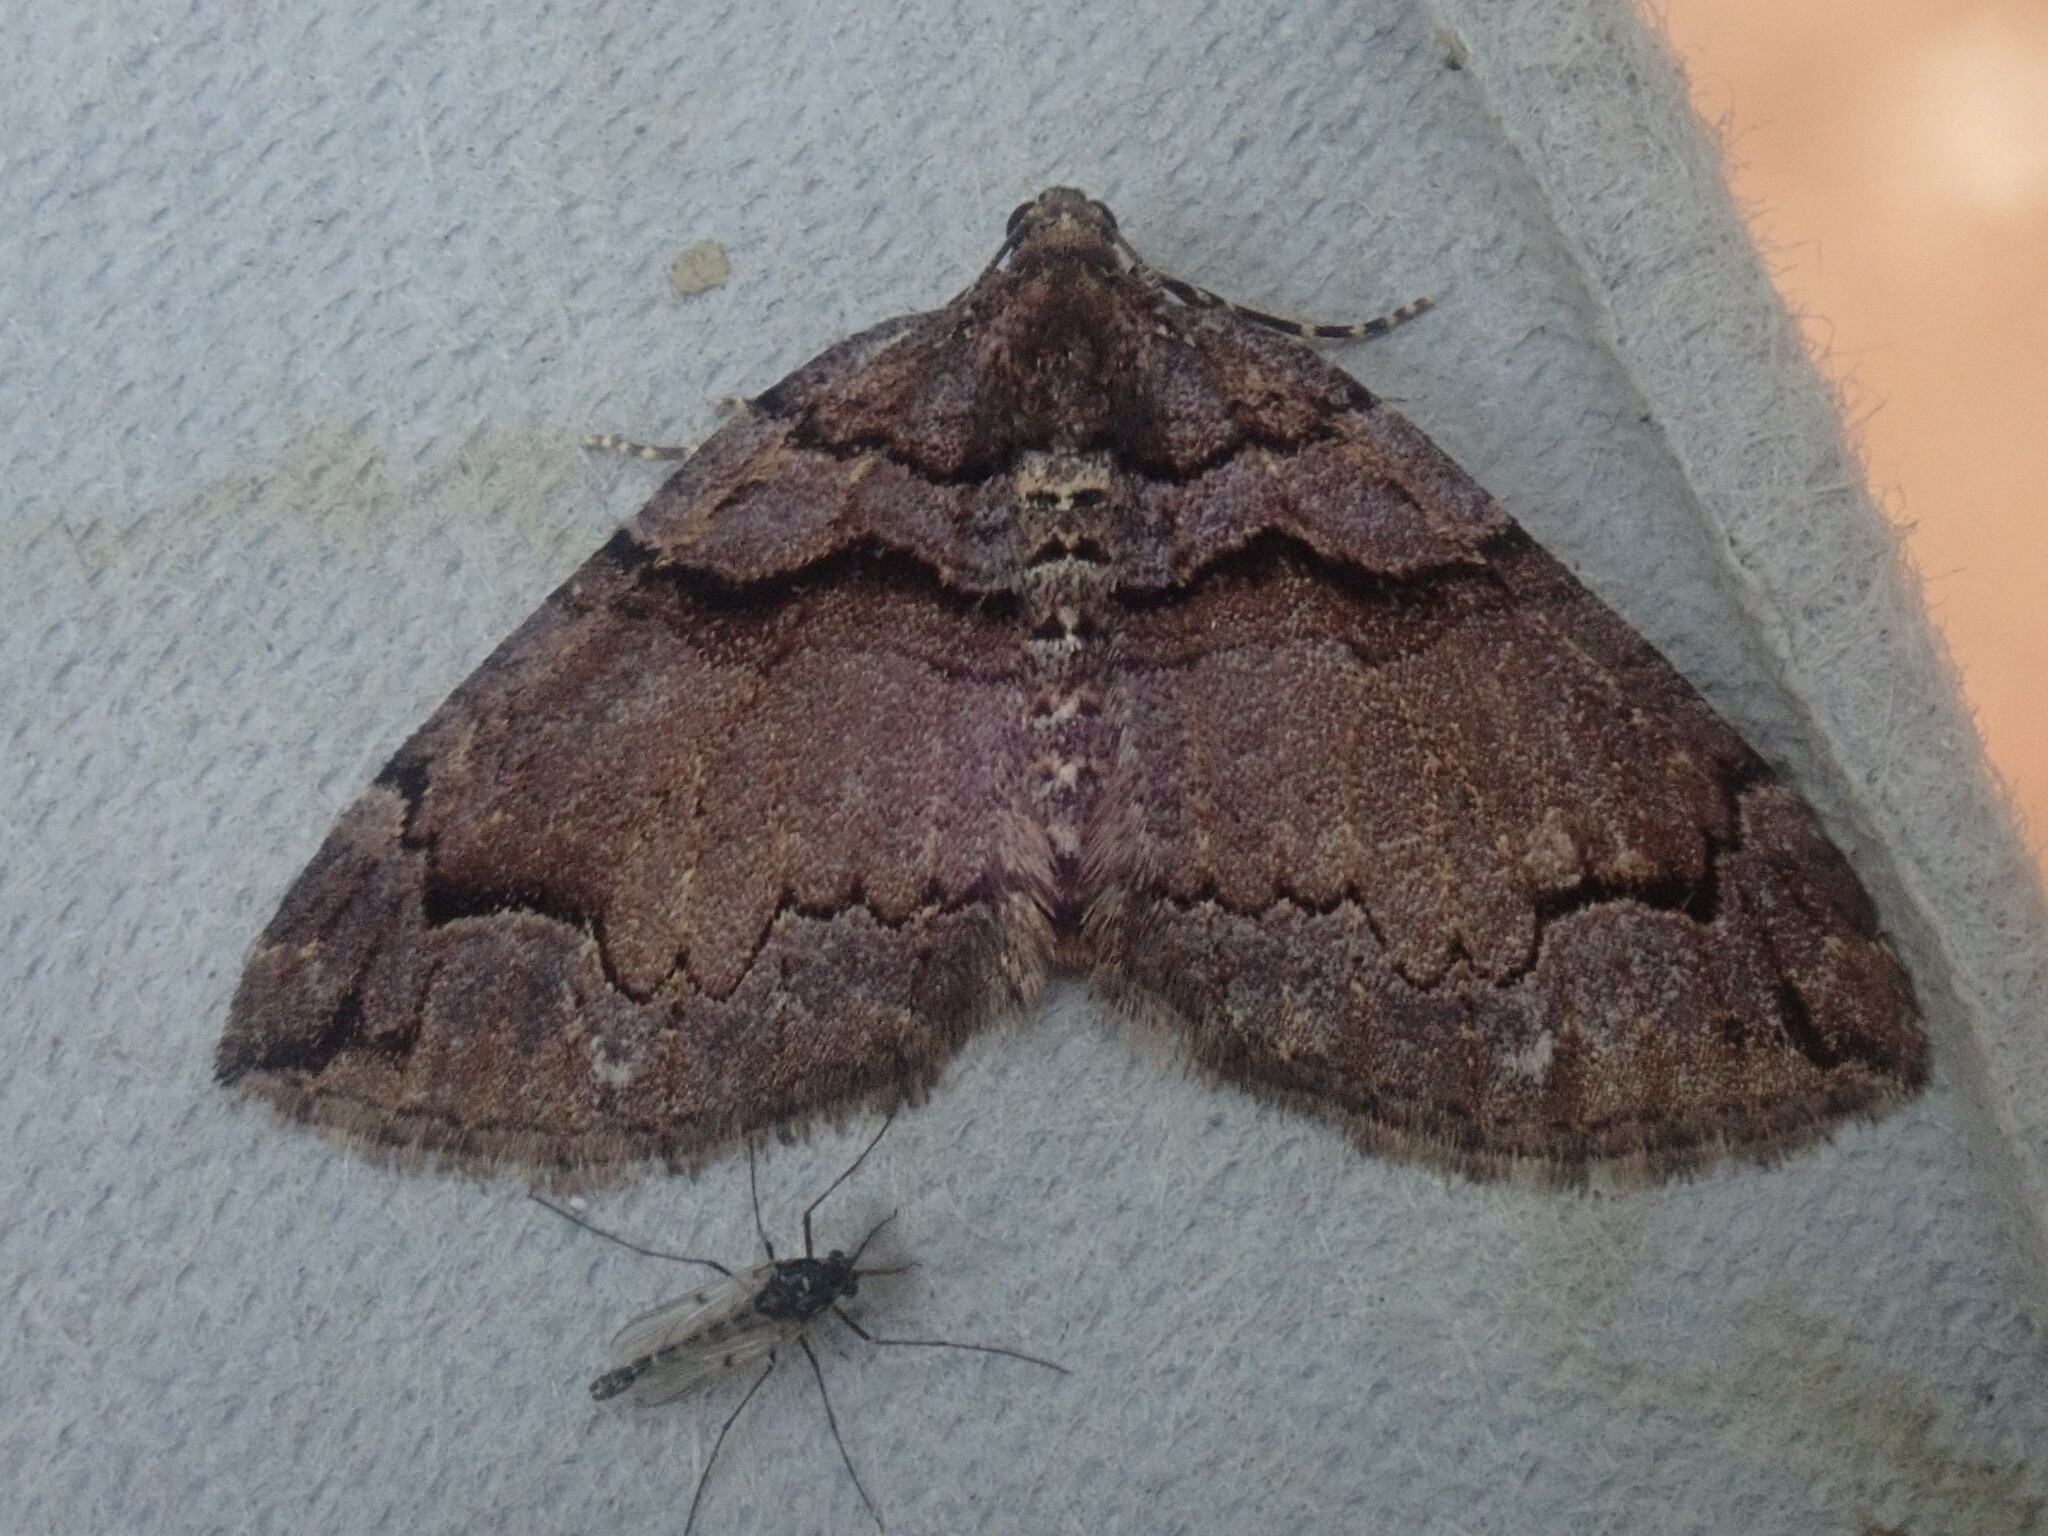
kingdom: Animalia
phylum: Arthropoda
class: Insecta
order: Lepidoptera
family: Geometridae
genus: Anticlea
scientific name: Anticlea vasiliata
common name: Variable carpet
